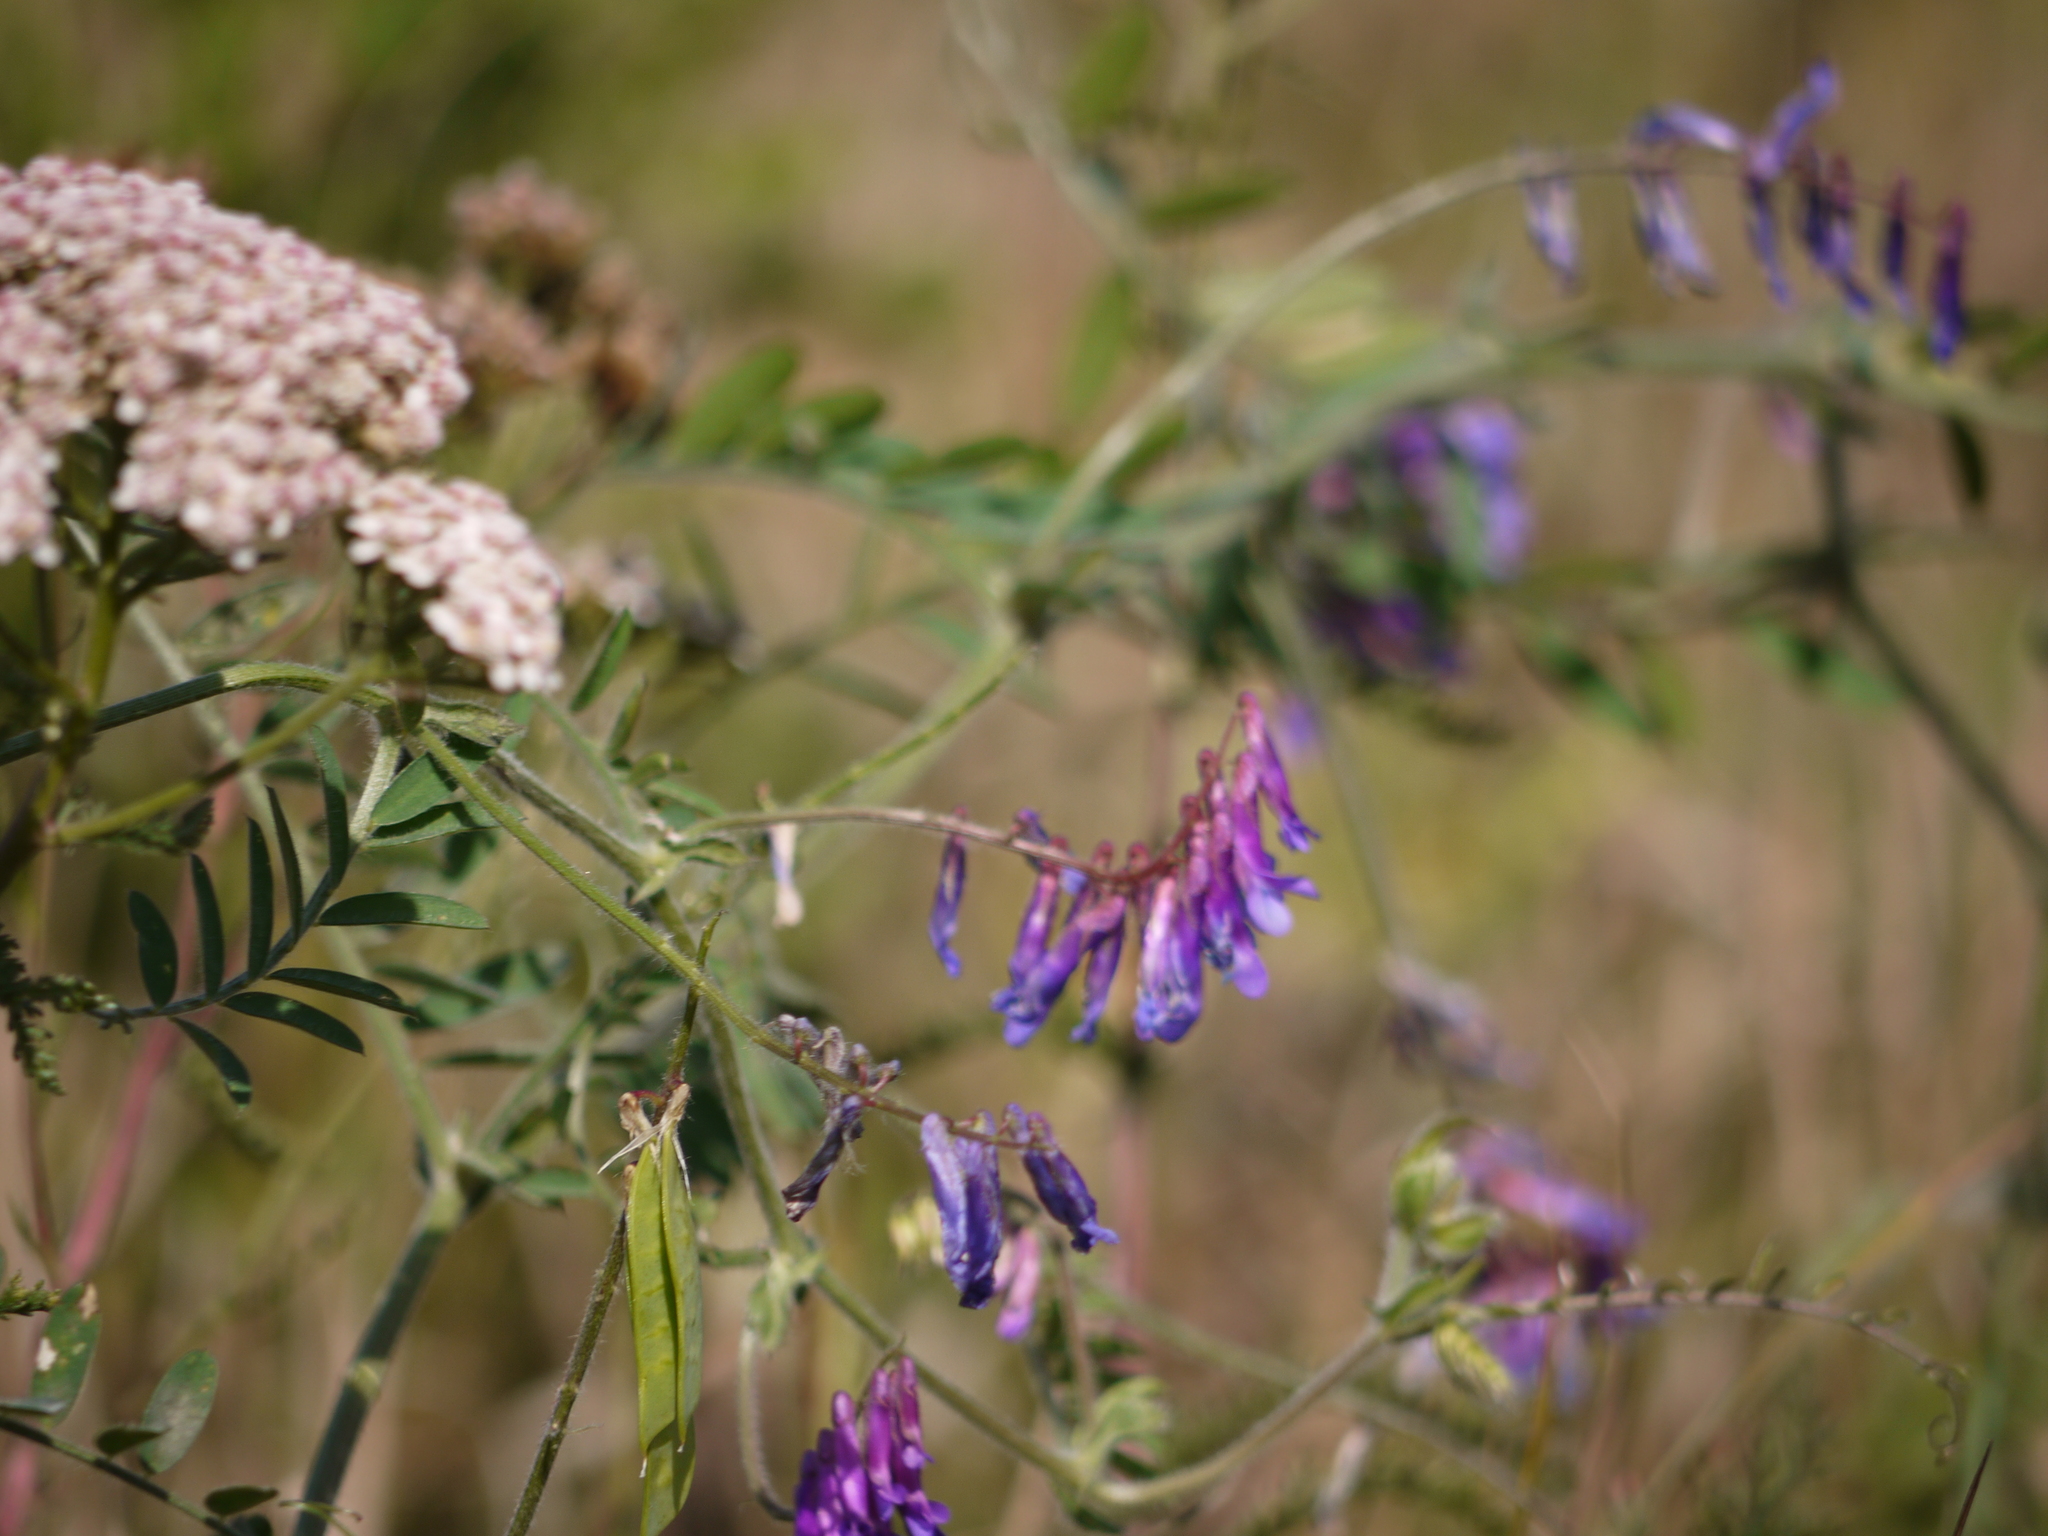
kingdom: Plantae
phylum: Tracheophyta
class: Magnoliopsida
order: Fabales
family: Fabaceae
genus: Vicia
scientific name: Vicia villosa
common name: Fodder vetch
